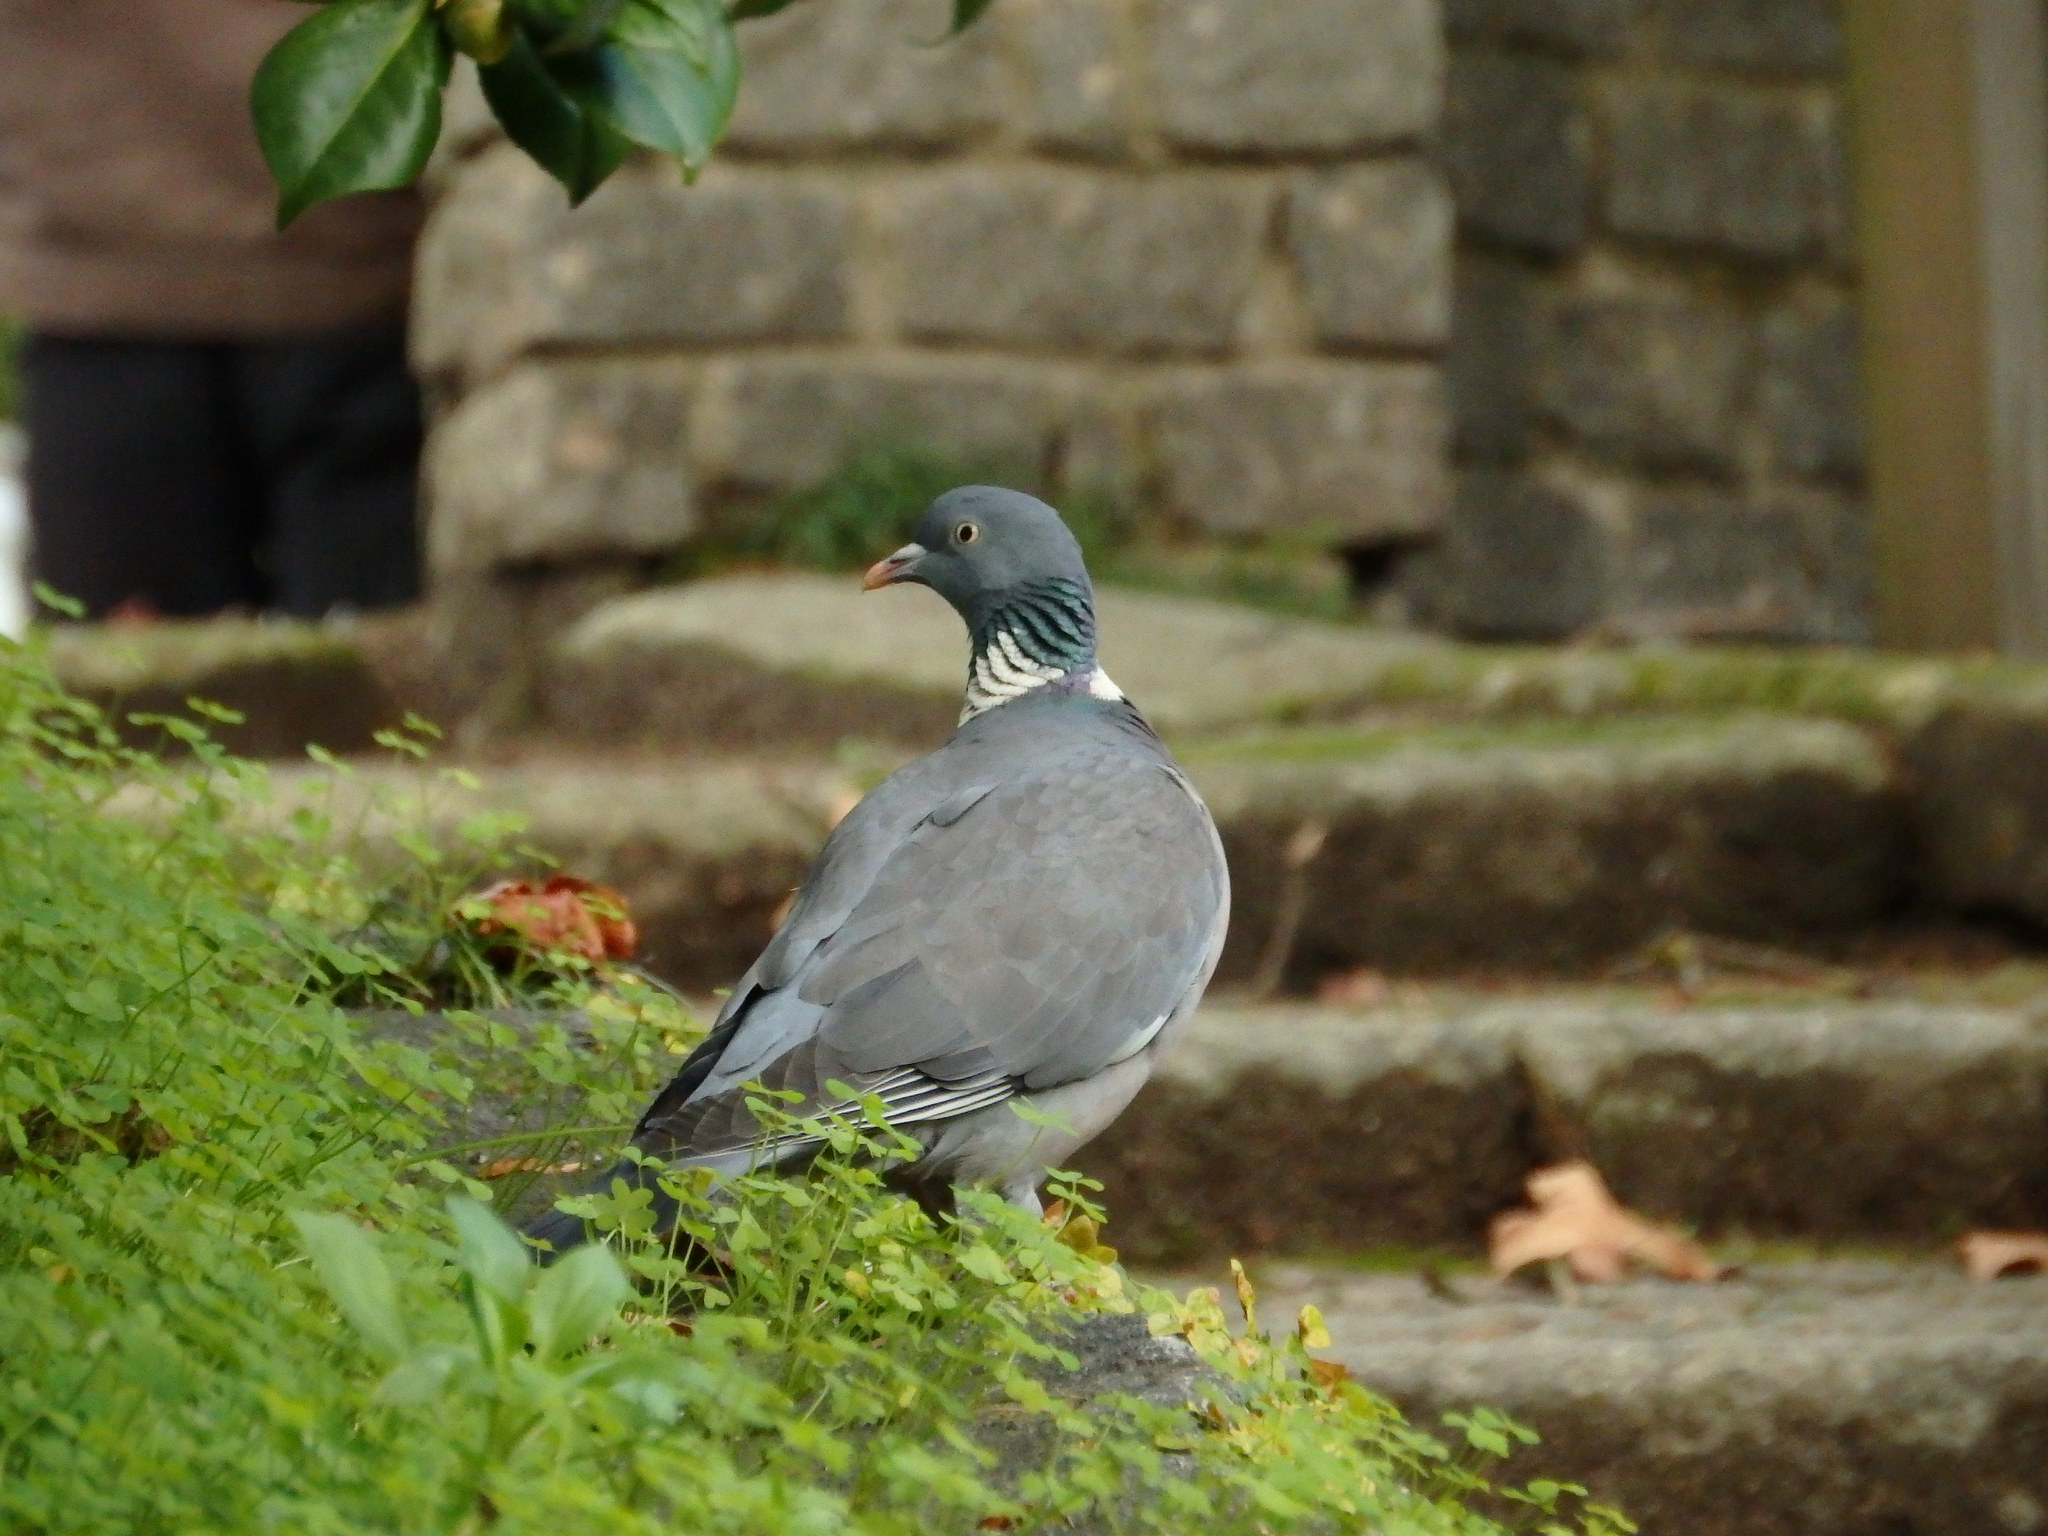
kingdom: Animalia
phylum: Chordata
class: Aves
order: Columbiformes
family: Columbidae
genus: Columba
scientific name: Columba palumbus
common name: Common wood pigeon
